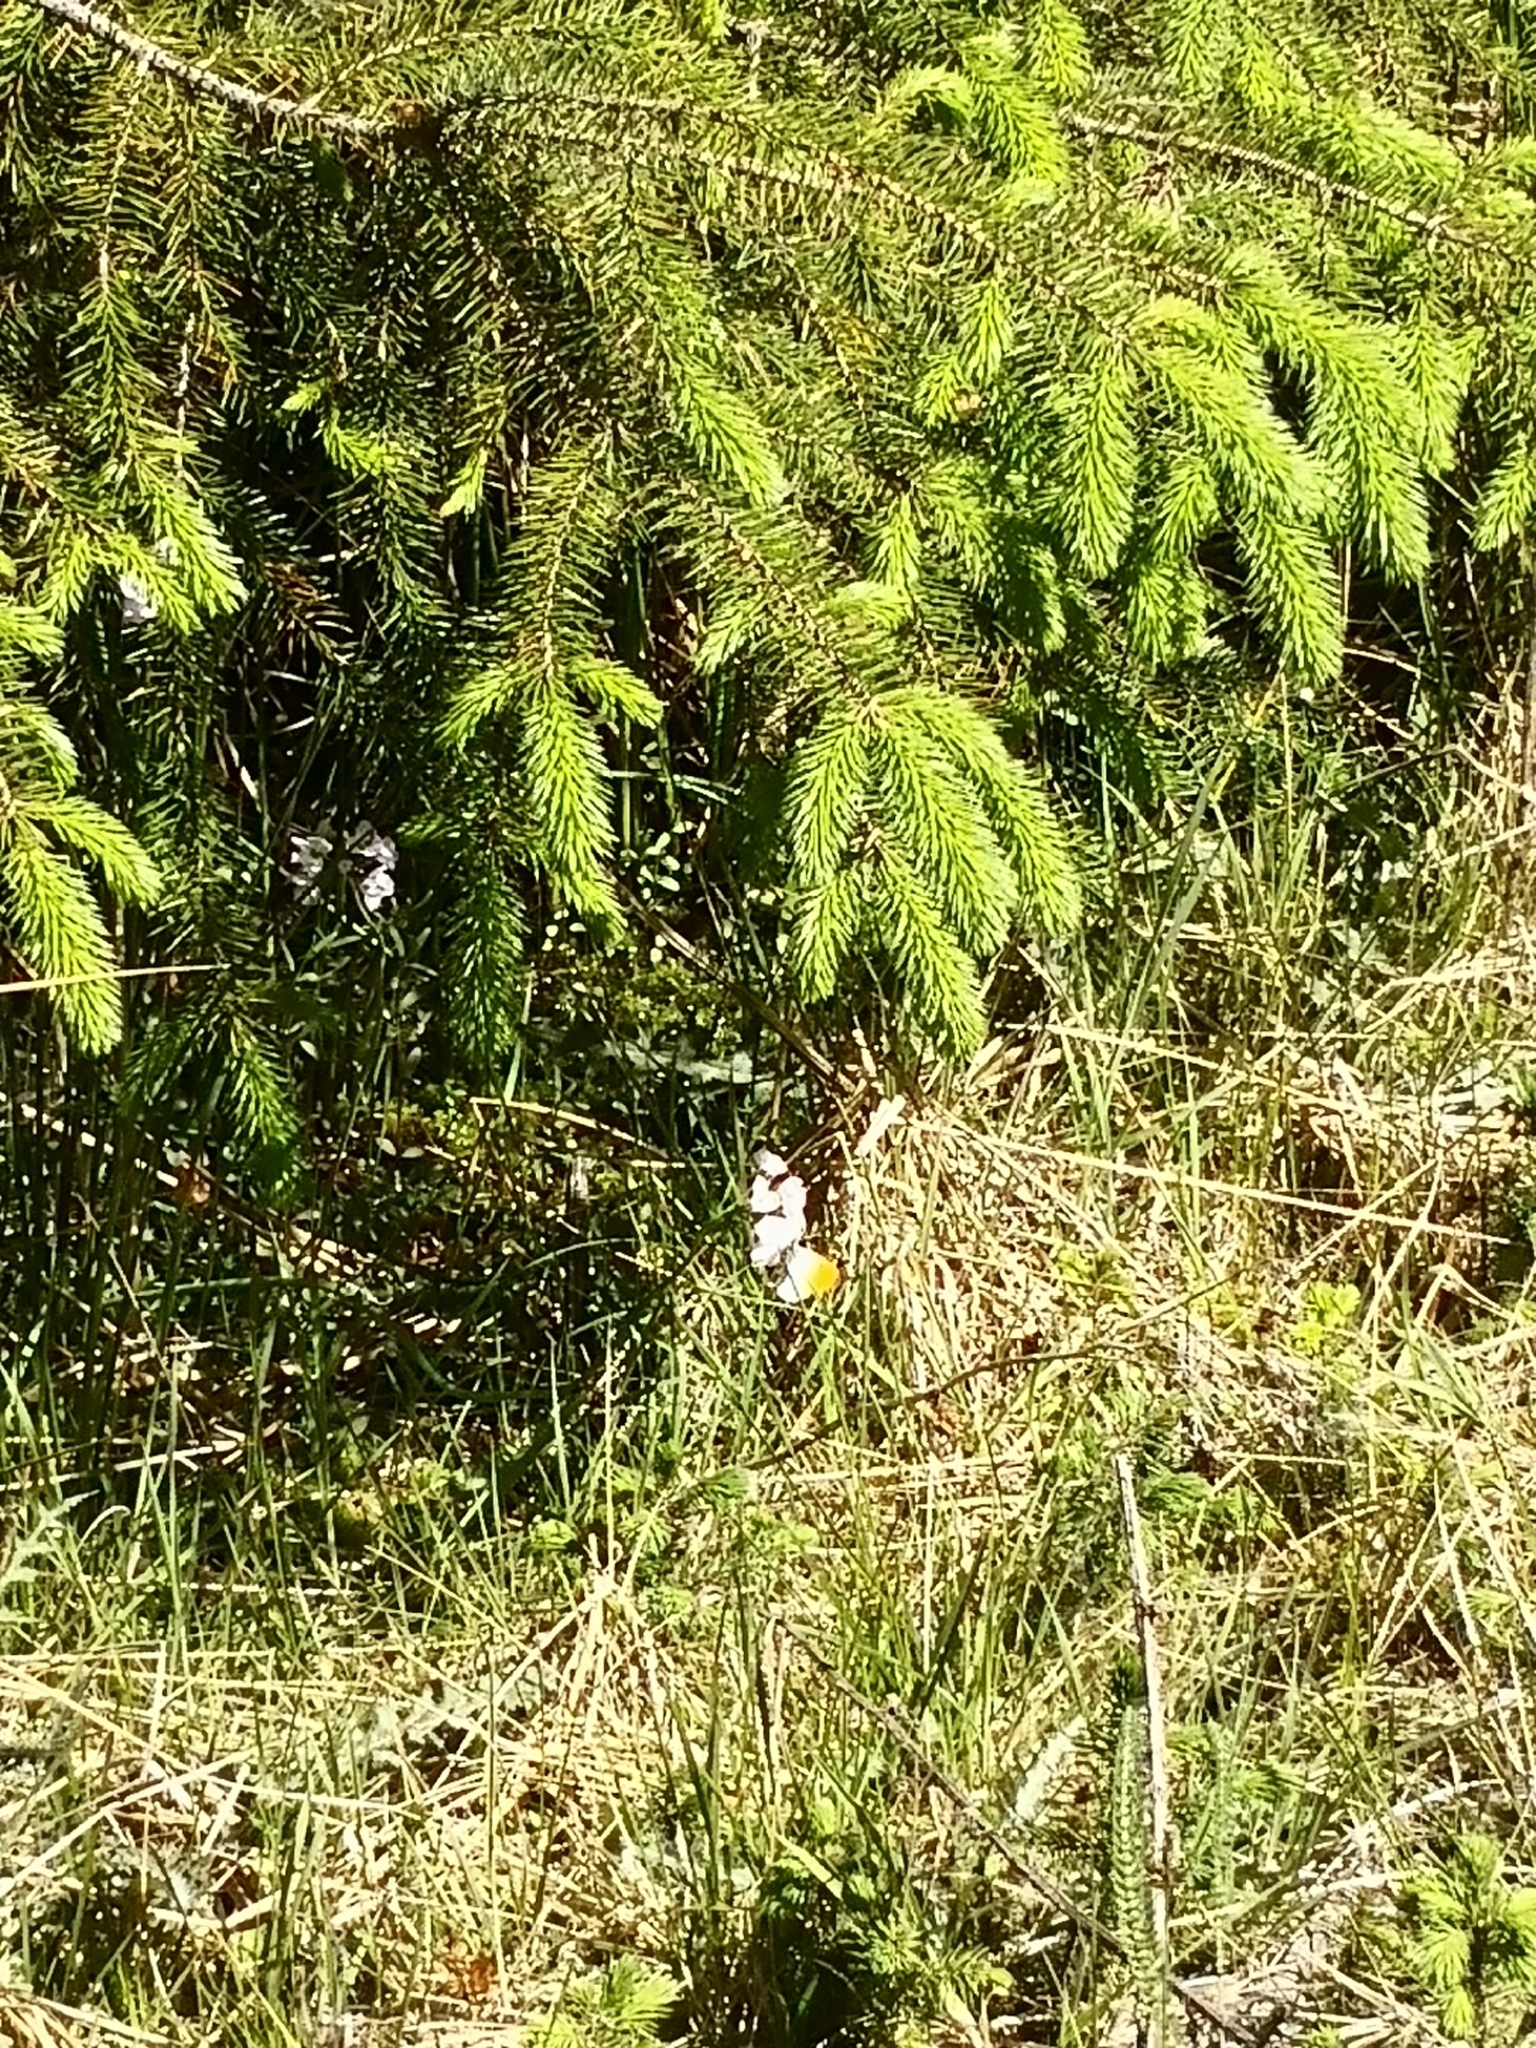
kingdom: Animalia
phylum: Arthropoda
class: Insecta
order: Lepidoptera
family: Pieridae
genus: Anthocharis
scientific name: Anthocharis cardamines
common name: Orange-tip
